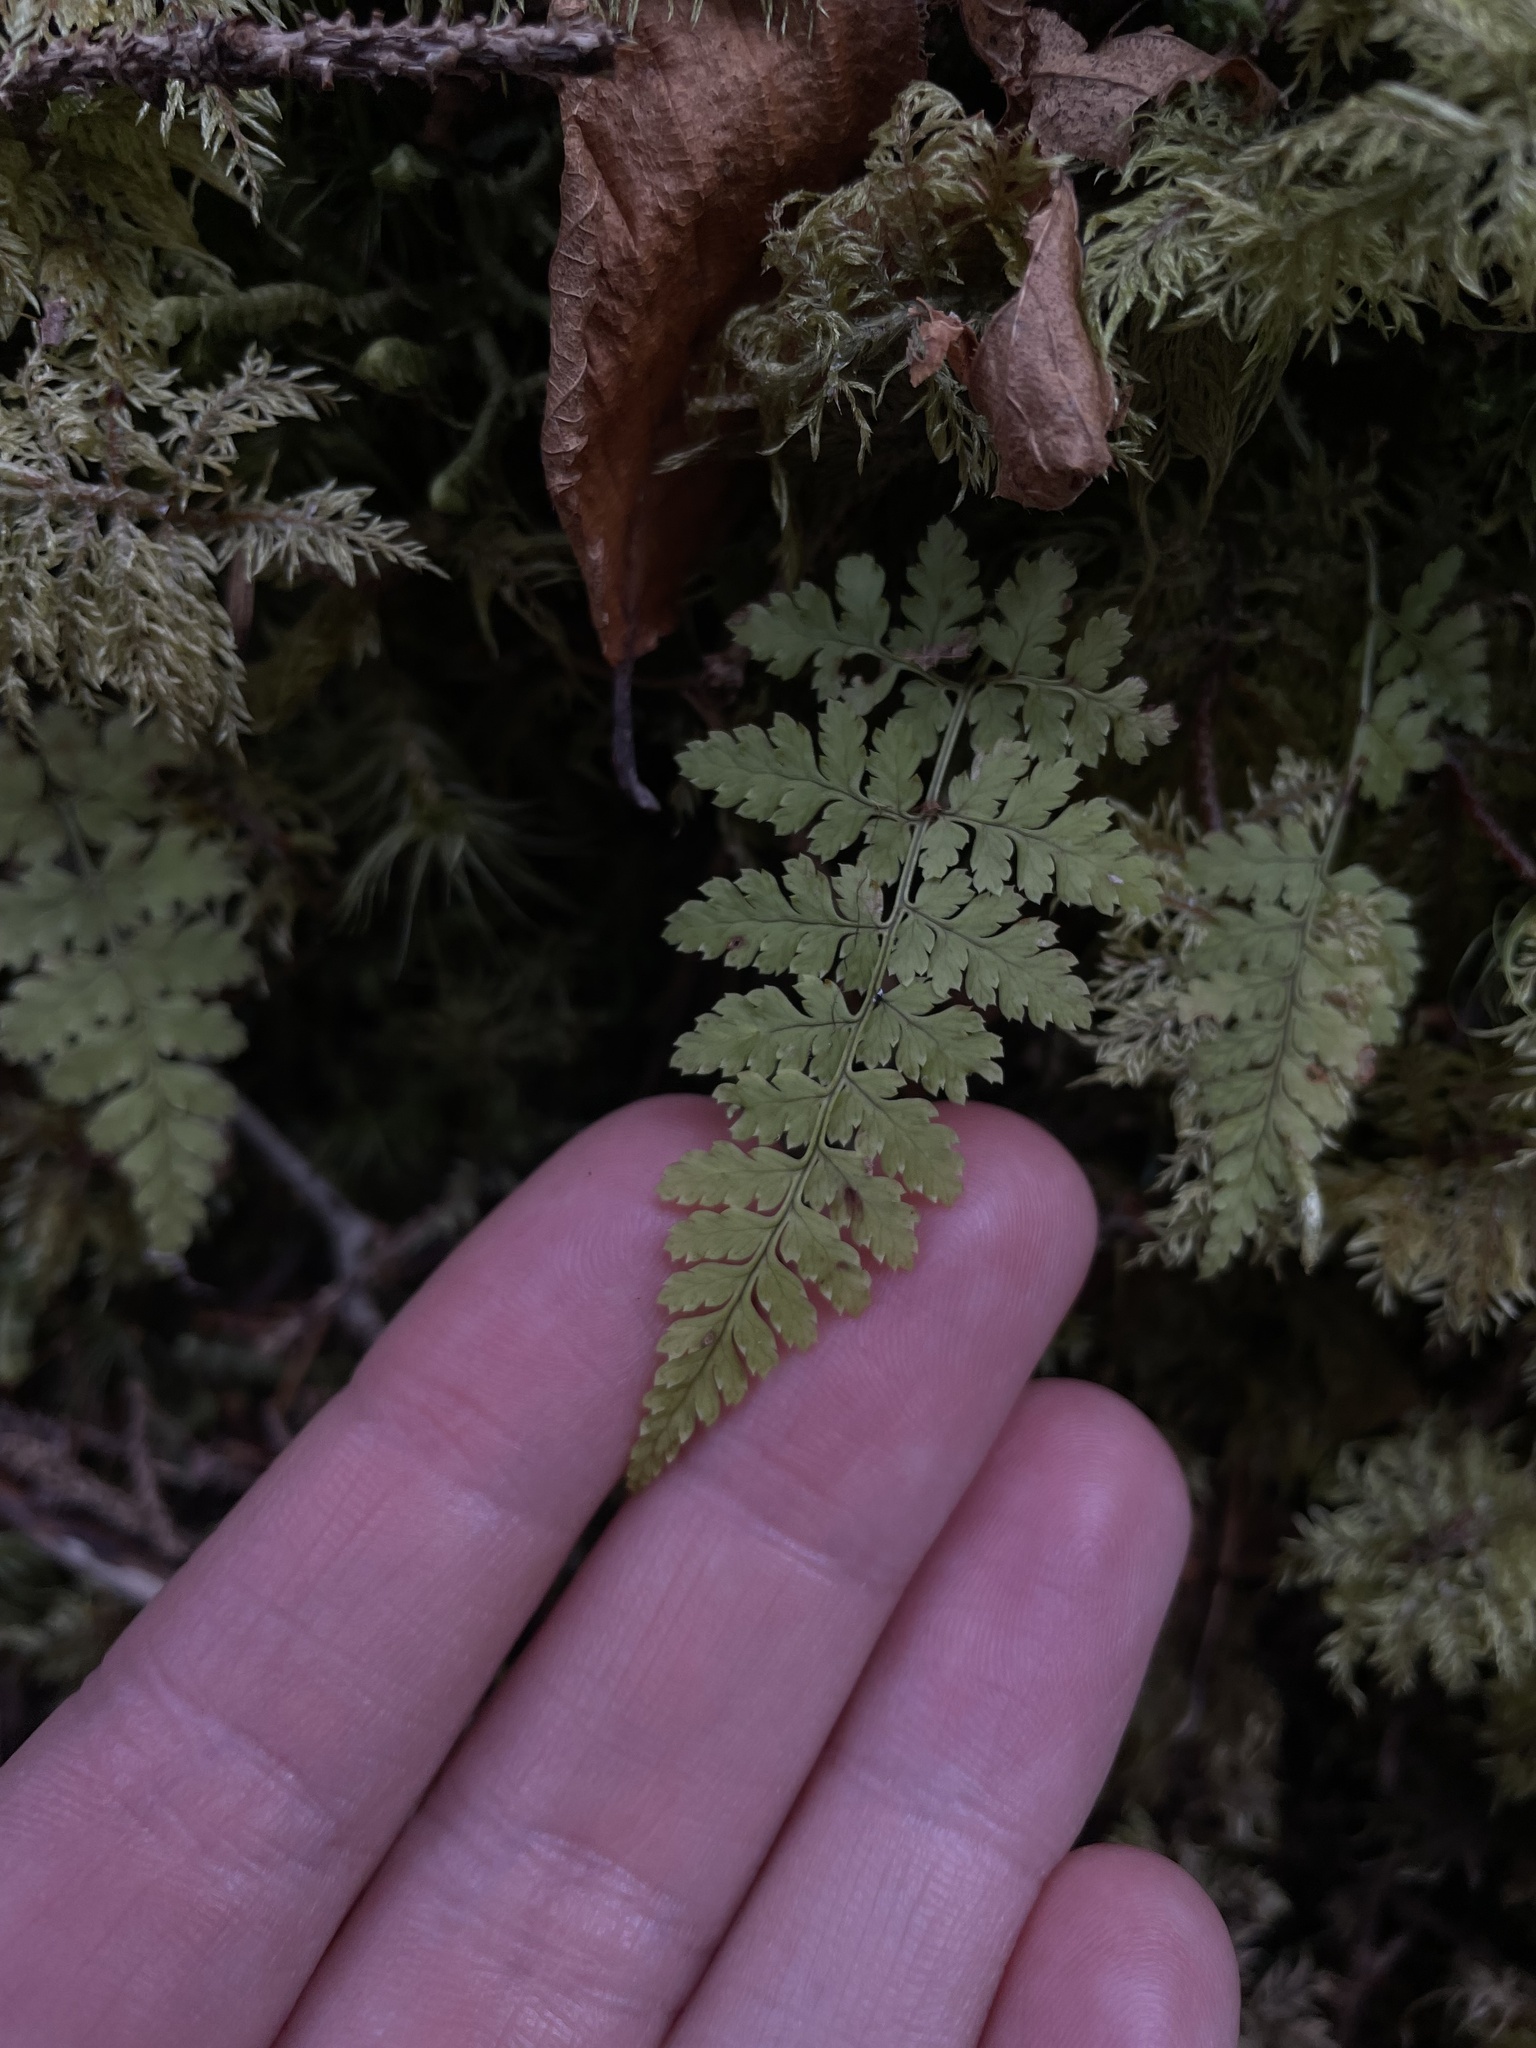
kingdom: Plantae
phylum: Tracheophyta
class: Polypodiopsida
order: Polypodiales
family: Dryopteridaceae
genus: Dryopteris
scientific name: Dryopteris intermedia
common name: Evergreen wood fern
